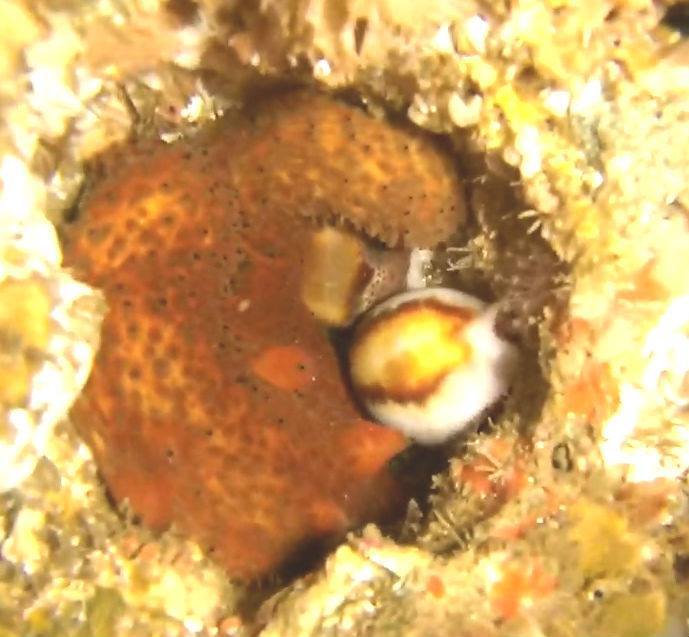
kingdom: Animalia
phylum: Mollusca
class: Gastropoda
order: Littorinimorpha
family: Cypraeidae
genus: Neobernaya
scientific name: Neobernaya spadicea
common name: Chestnut cowrie
